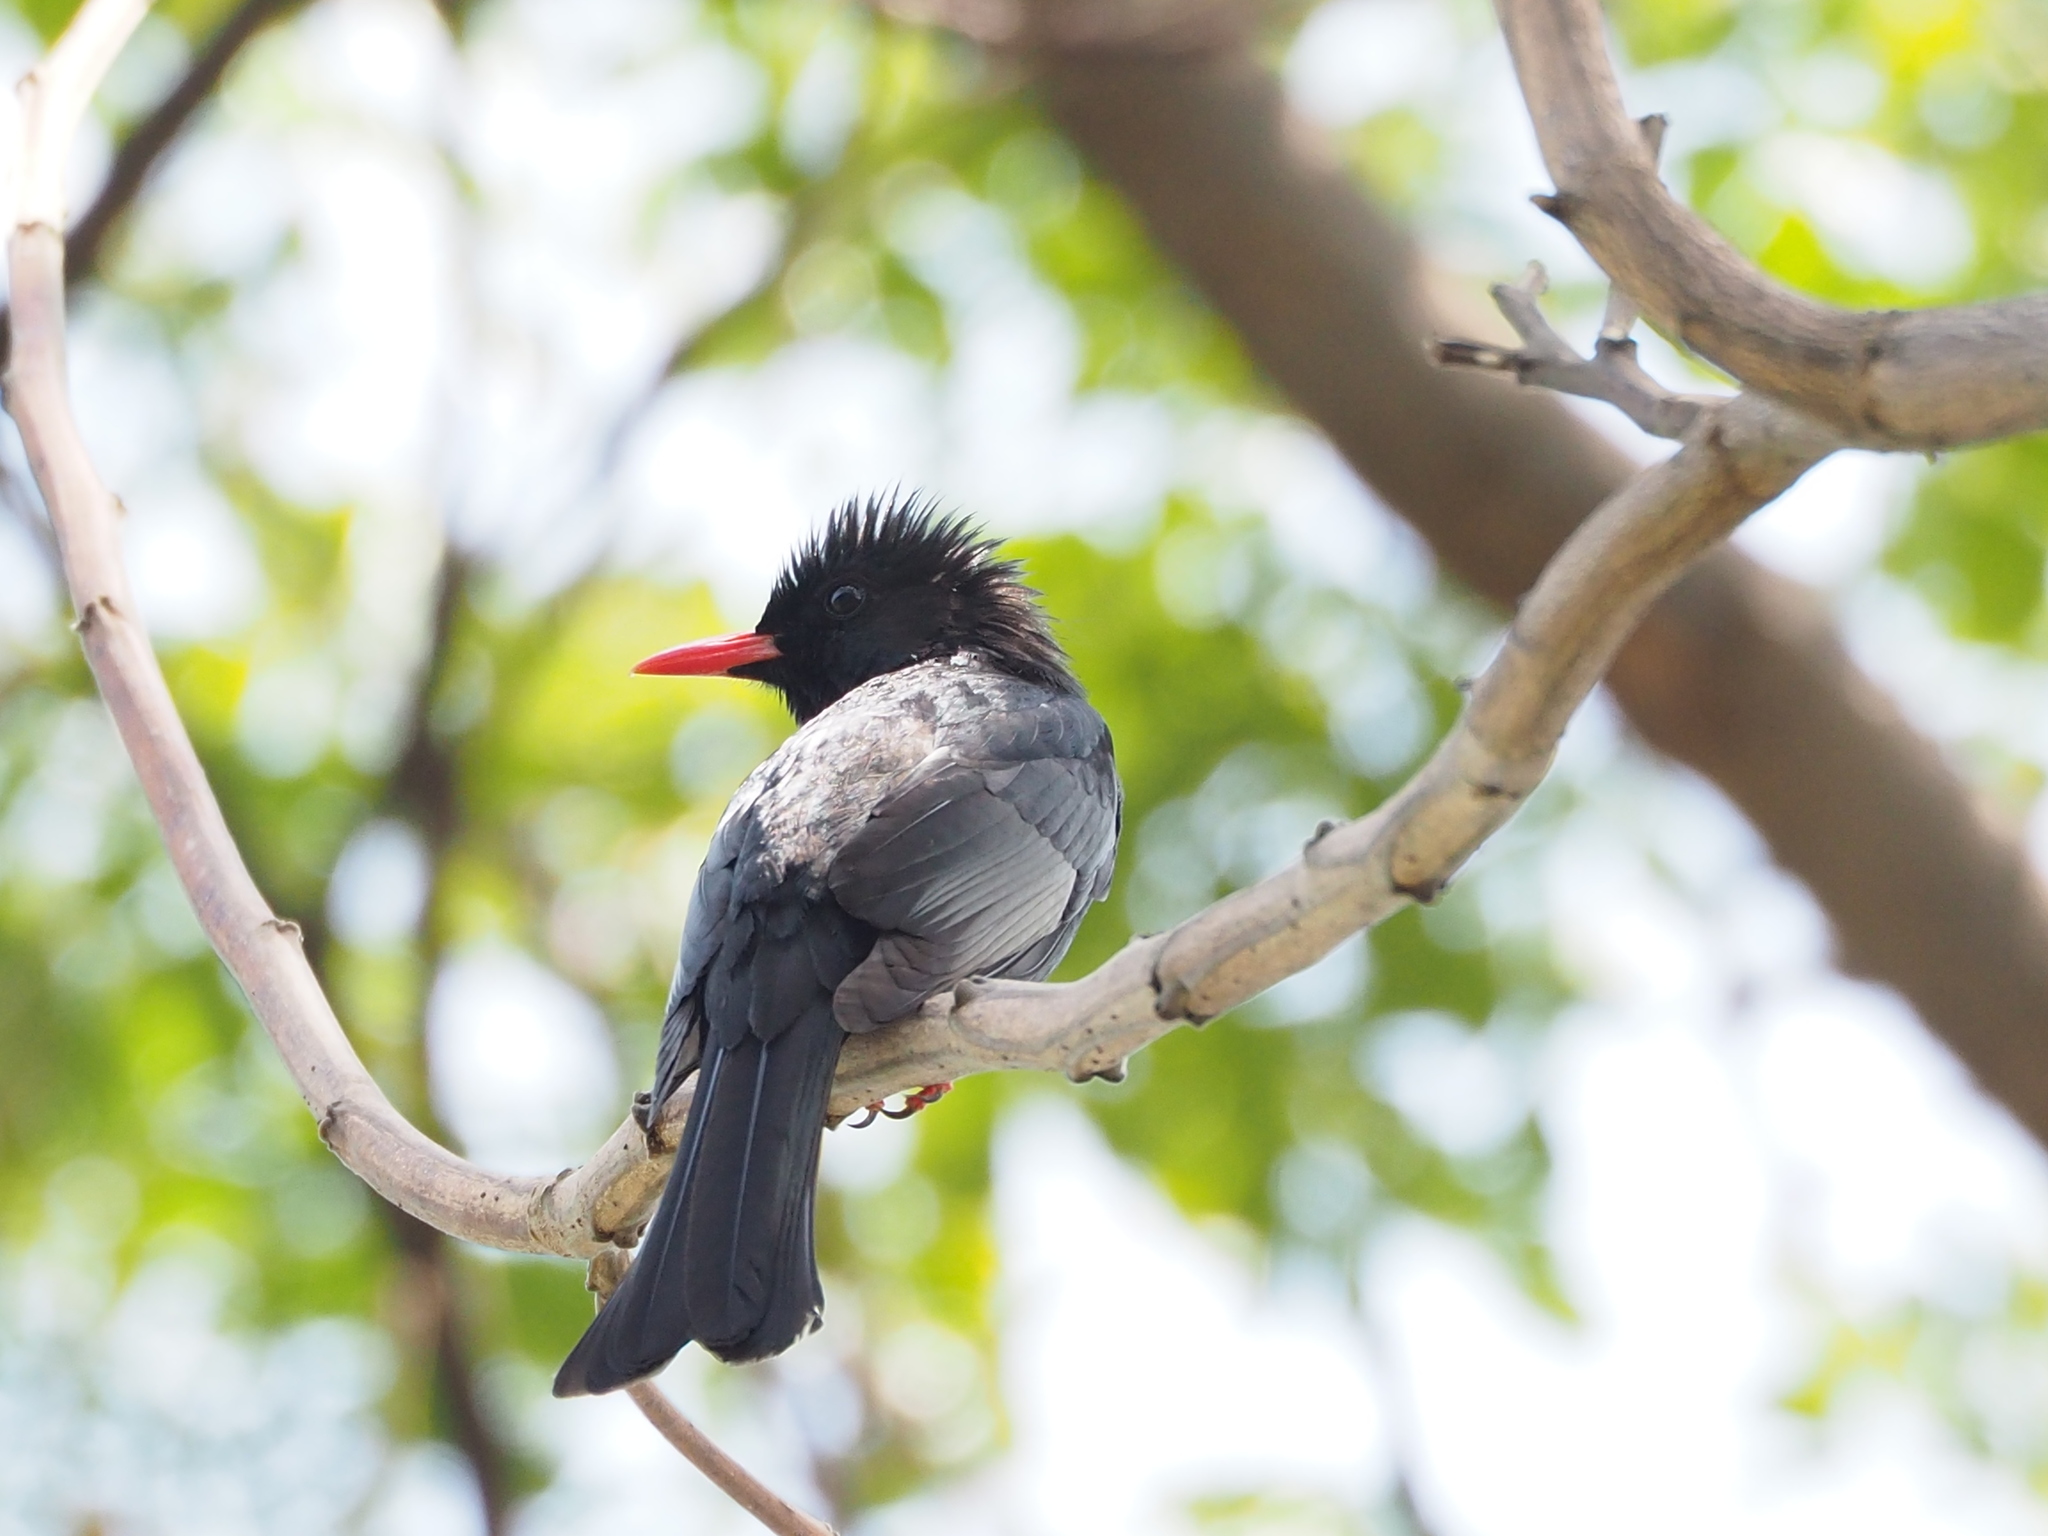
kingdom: Animalia
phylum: Chordata
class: Aves
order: Passeriformes
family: Pycnonotidae
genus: Hypsipetes
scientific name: Hypsipetes leucocephalus
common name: Black bulbul
